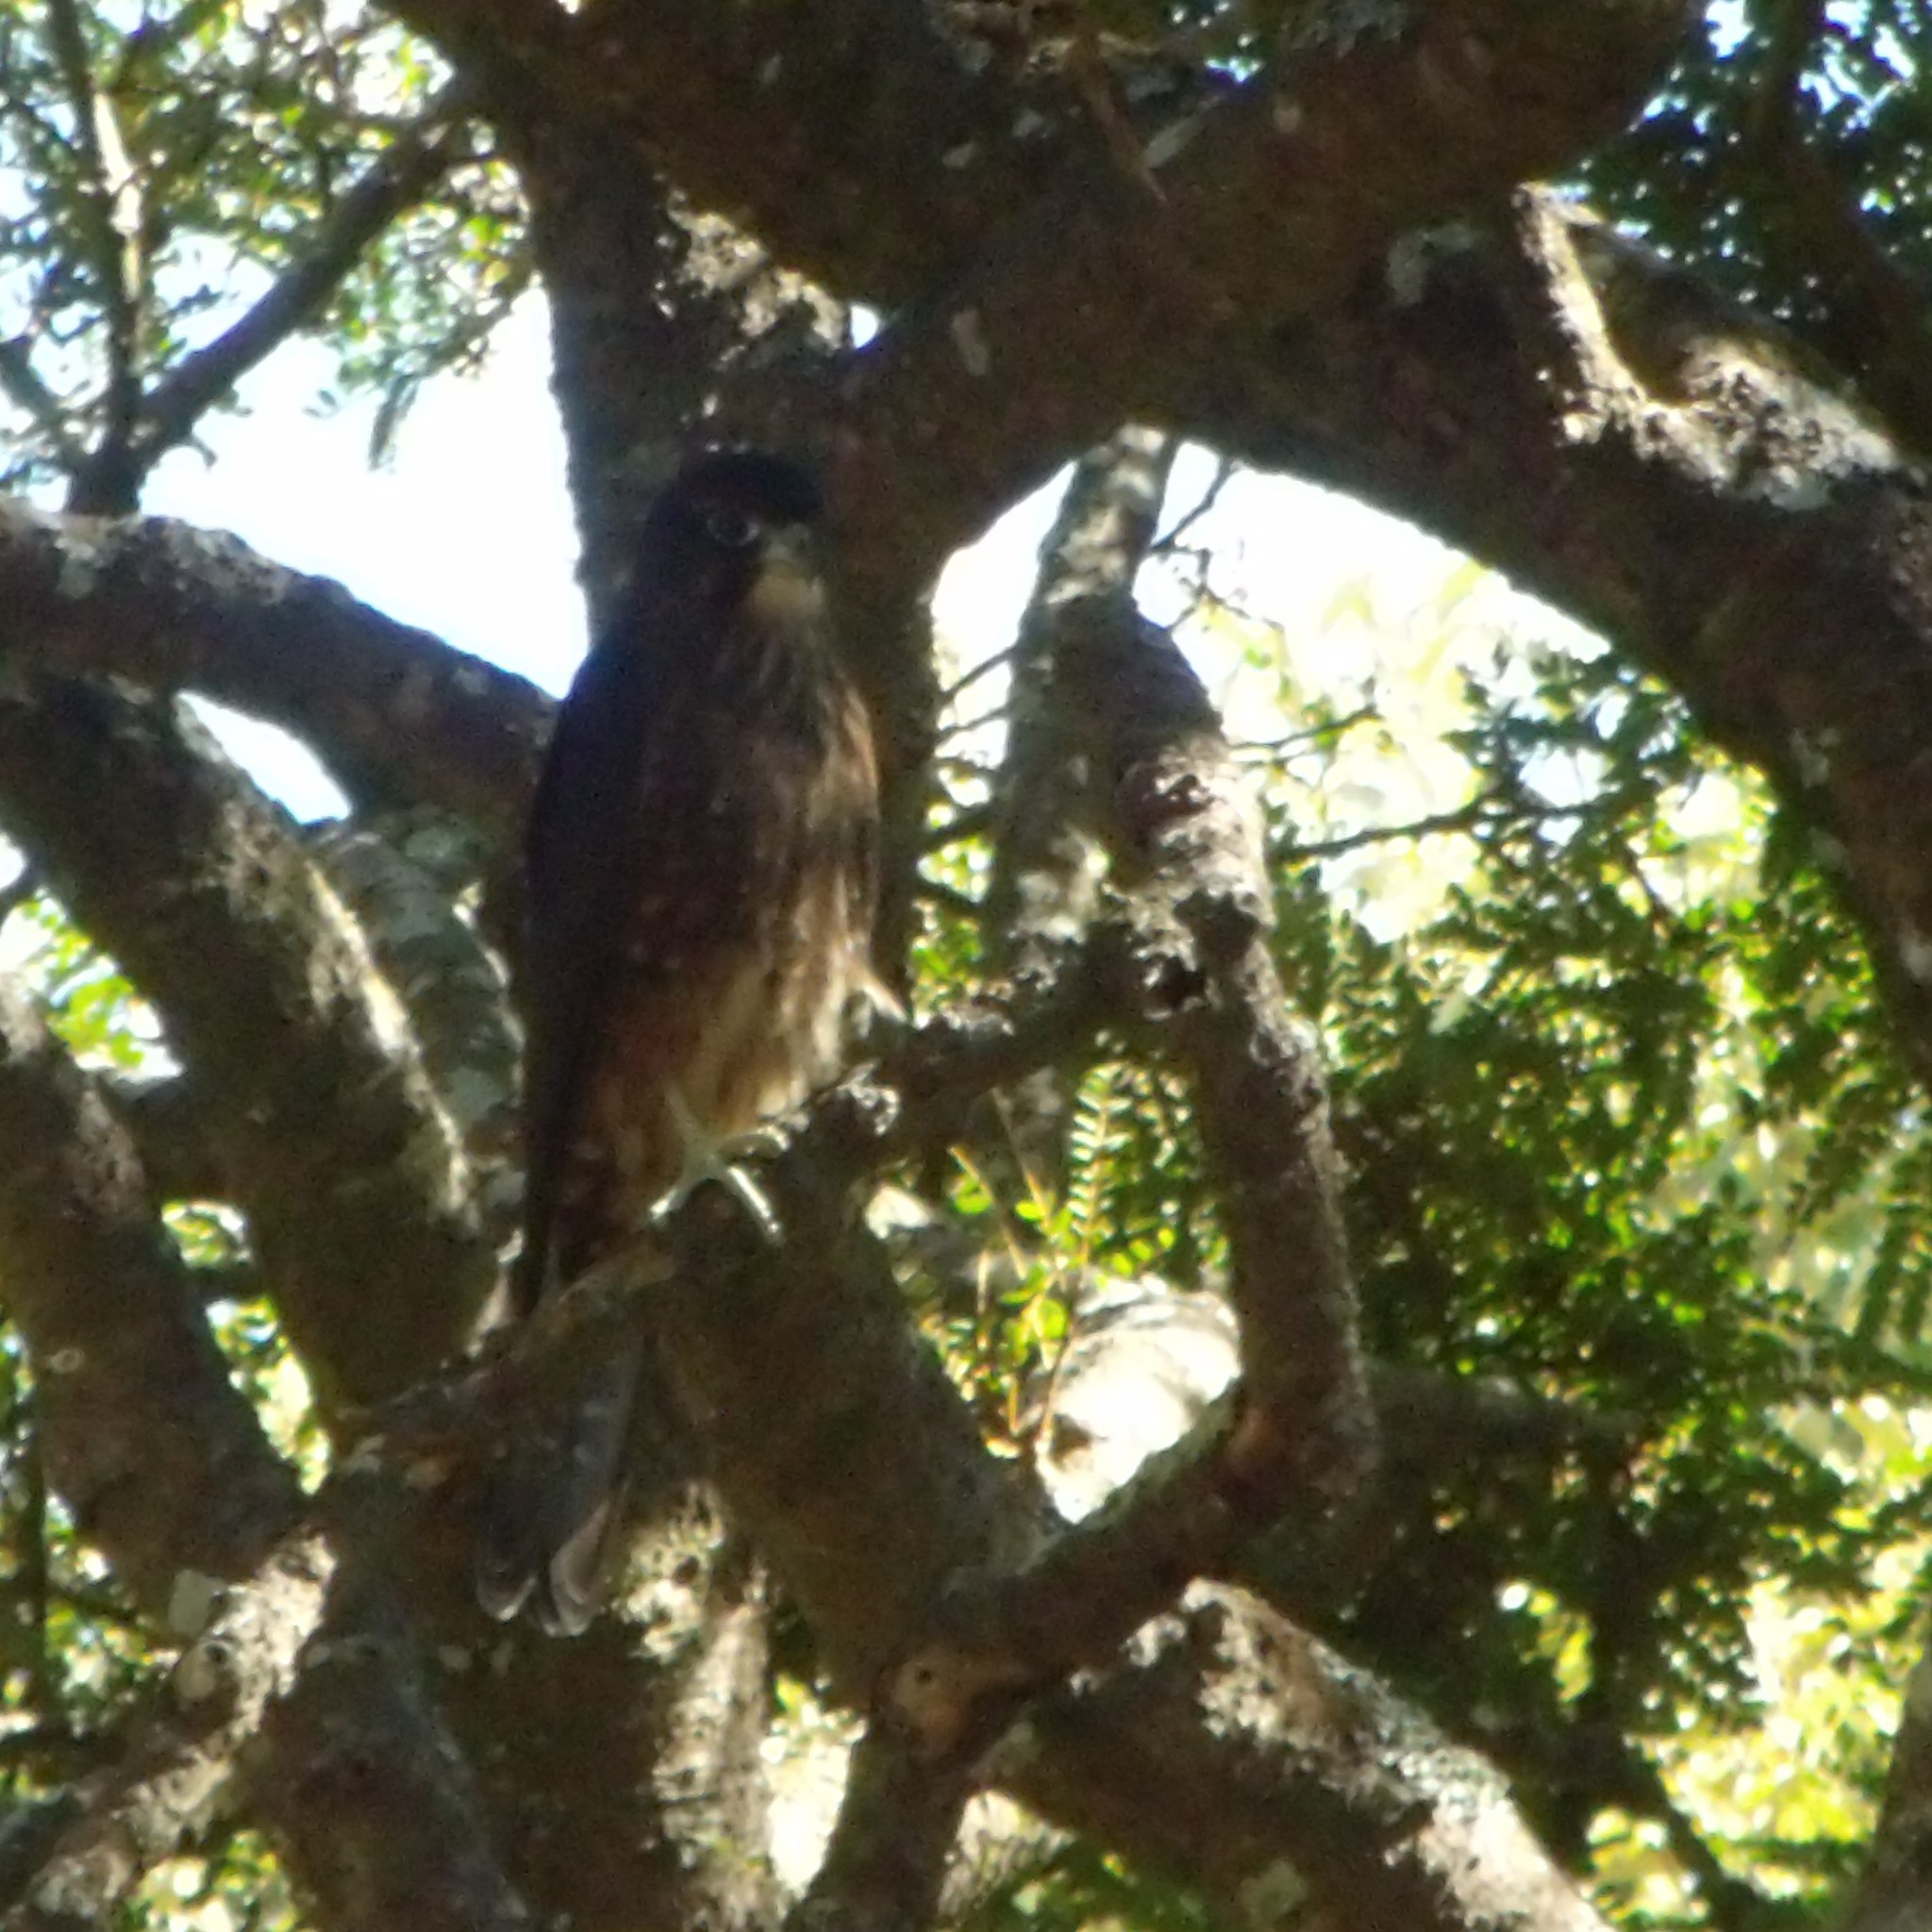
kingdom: Animalia
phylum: Chordata
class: Aves
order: Falconiformes
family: Falconidae
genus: Falco
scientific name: Falco novaeseelandiae
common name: New zealand falcon
